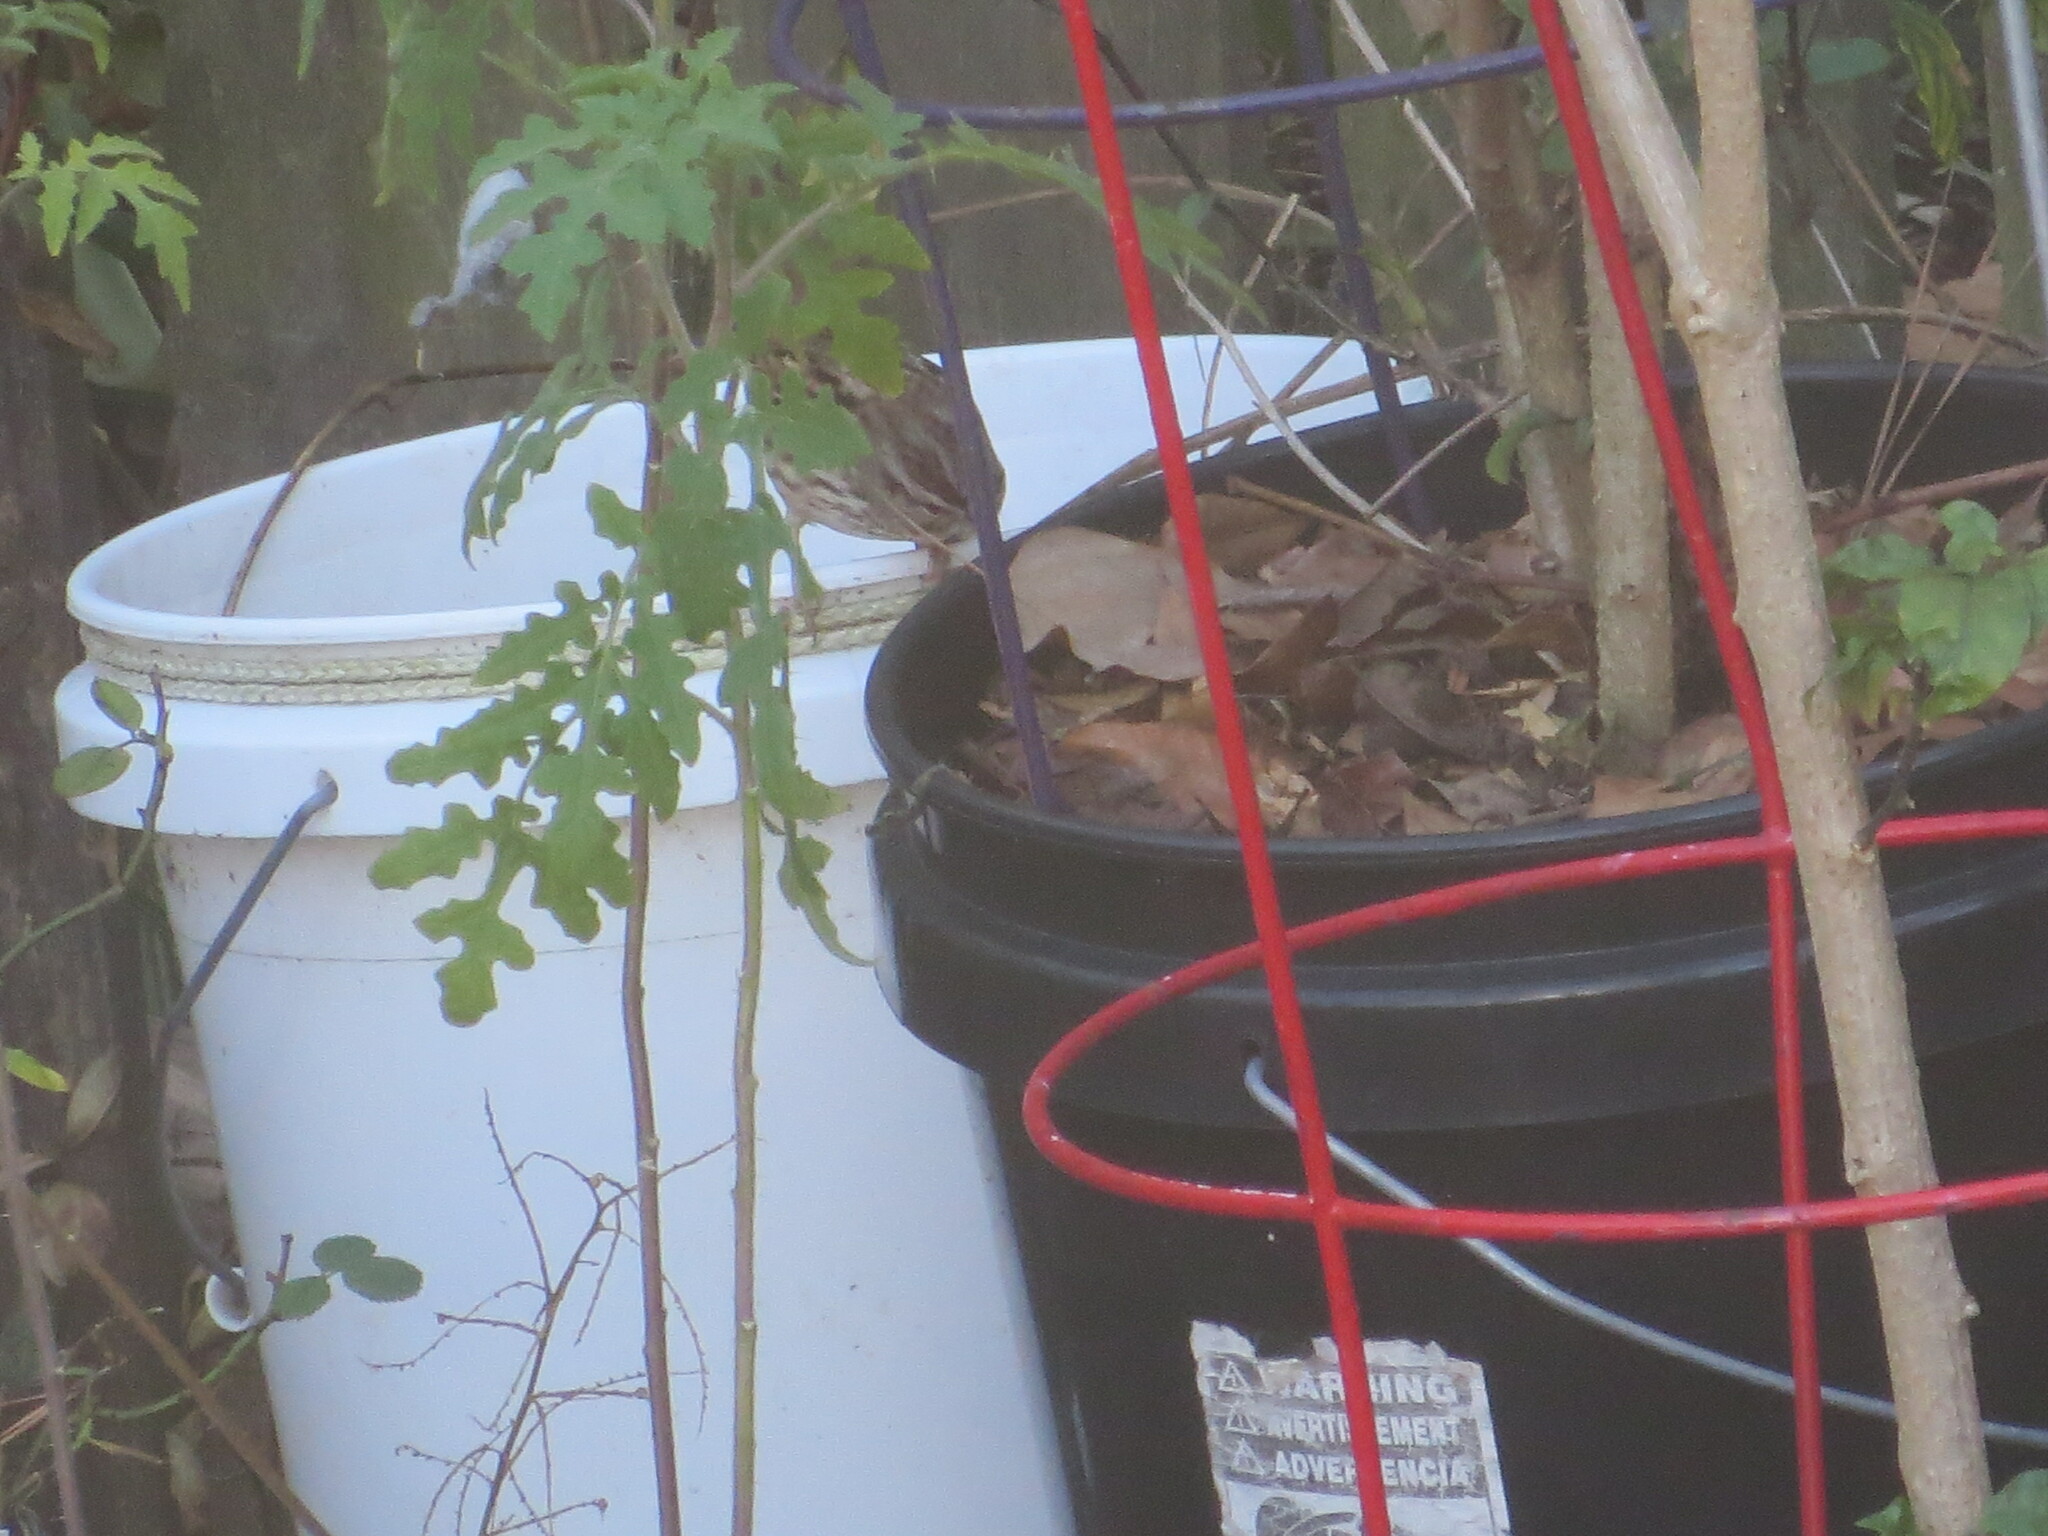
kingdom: Animalia
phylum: Chordata
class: Aves
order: Passeriformes
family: Passerellidae
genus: Melospiza
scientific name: Melospiza melodia
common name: Song sparrow
